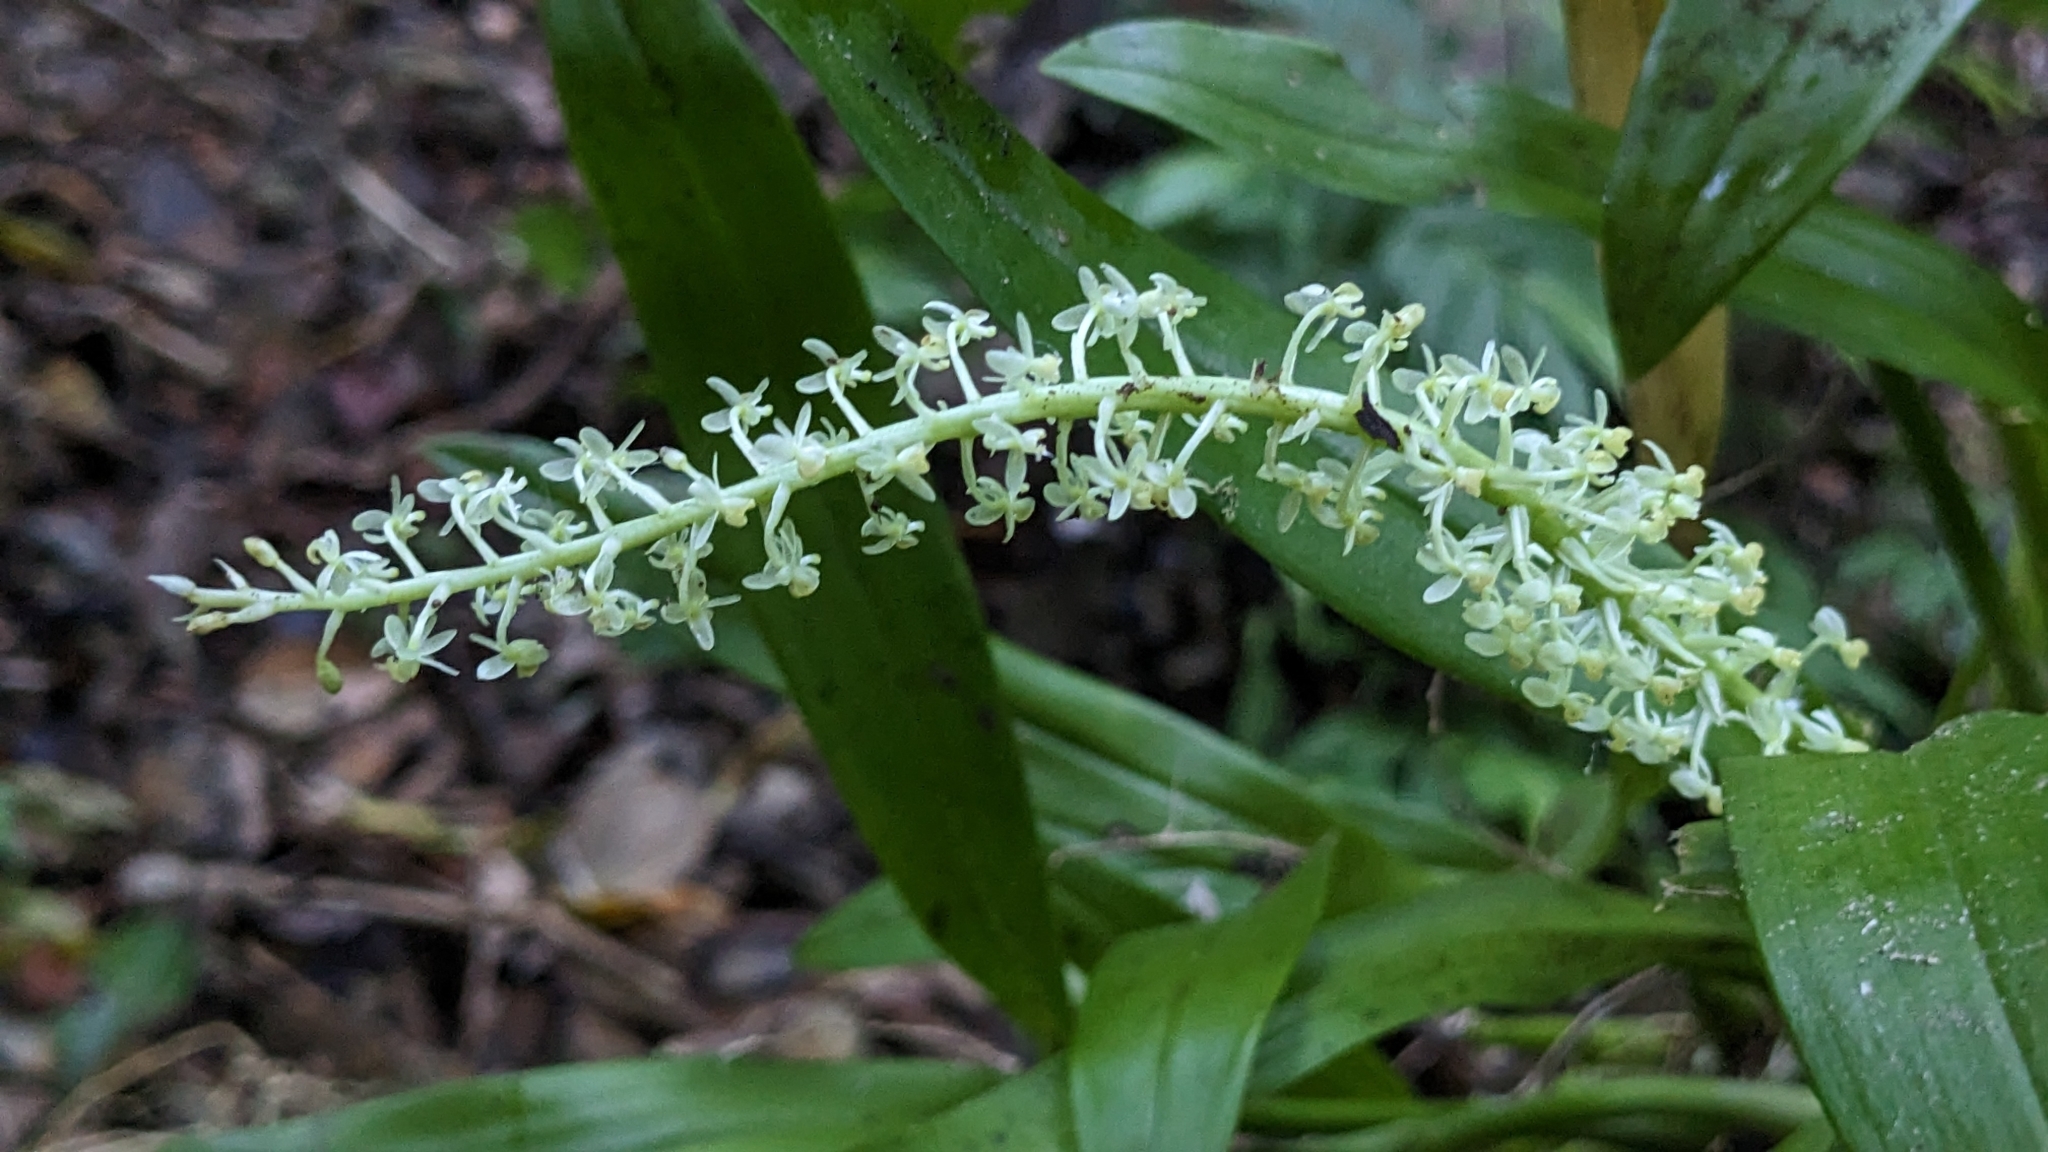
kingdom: Plantae
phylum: Tracheophyta
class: Liliopsida
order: Asparagales
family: Orchidaceae
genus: Liparis
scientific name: Liparis condylobulbon
